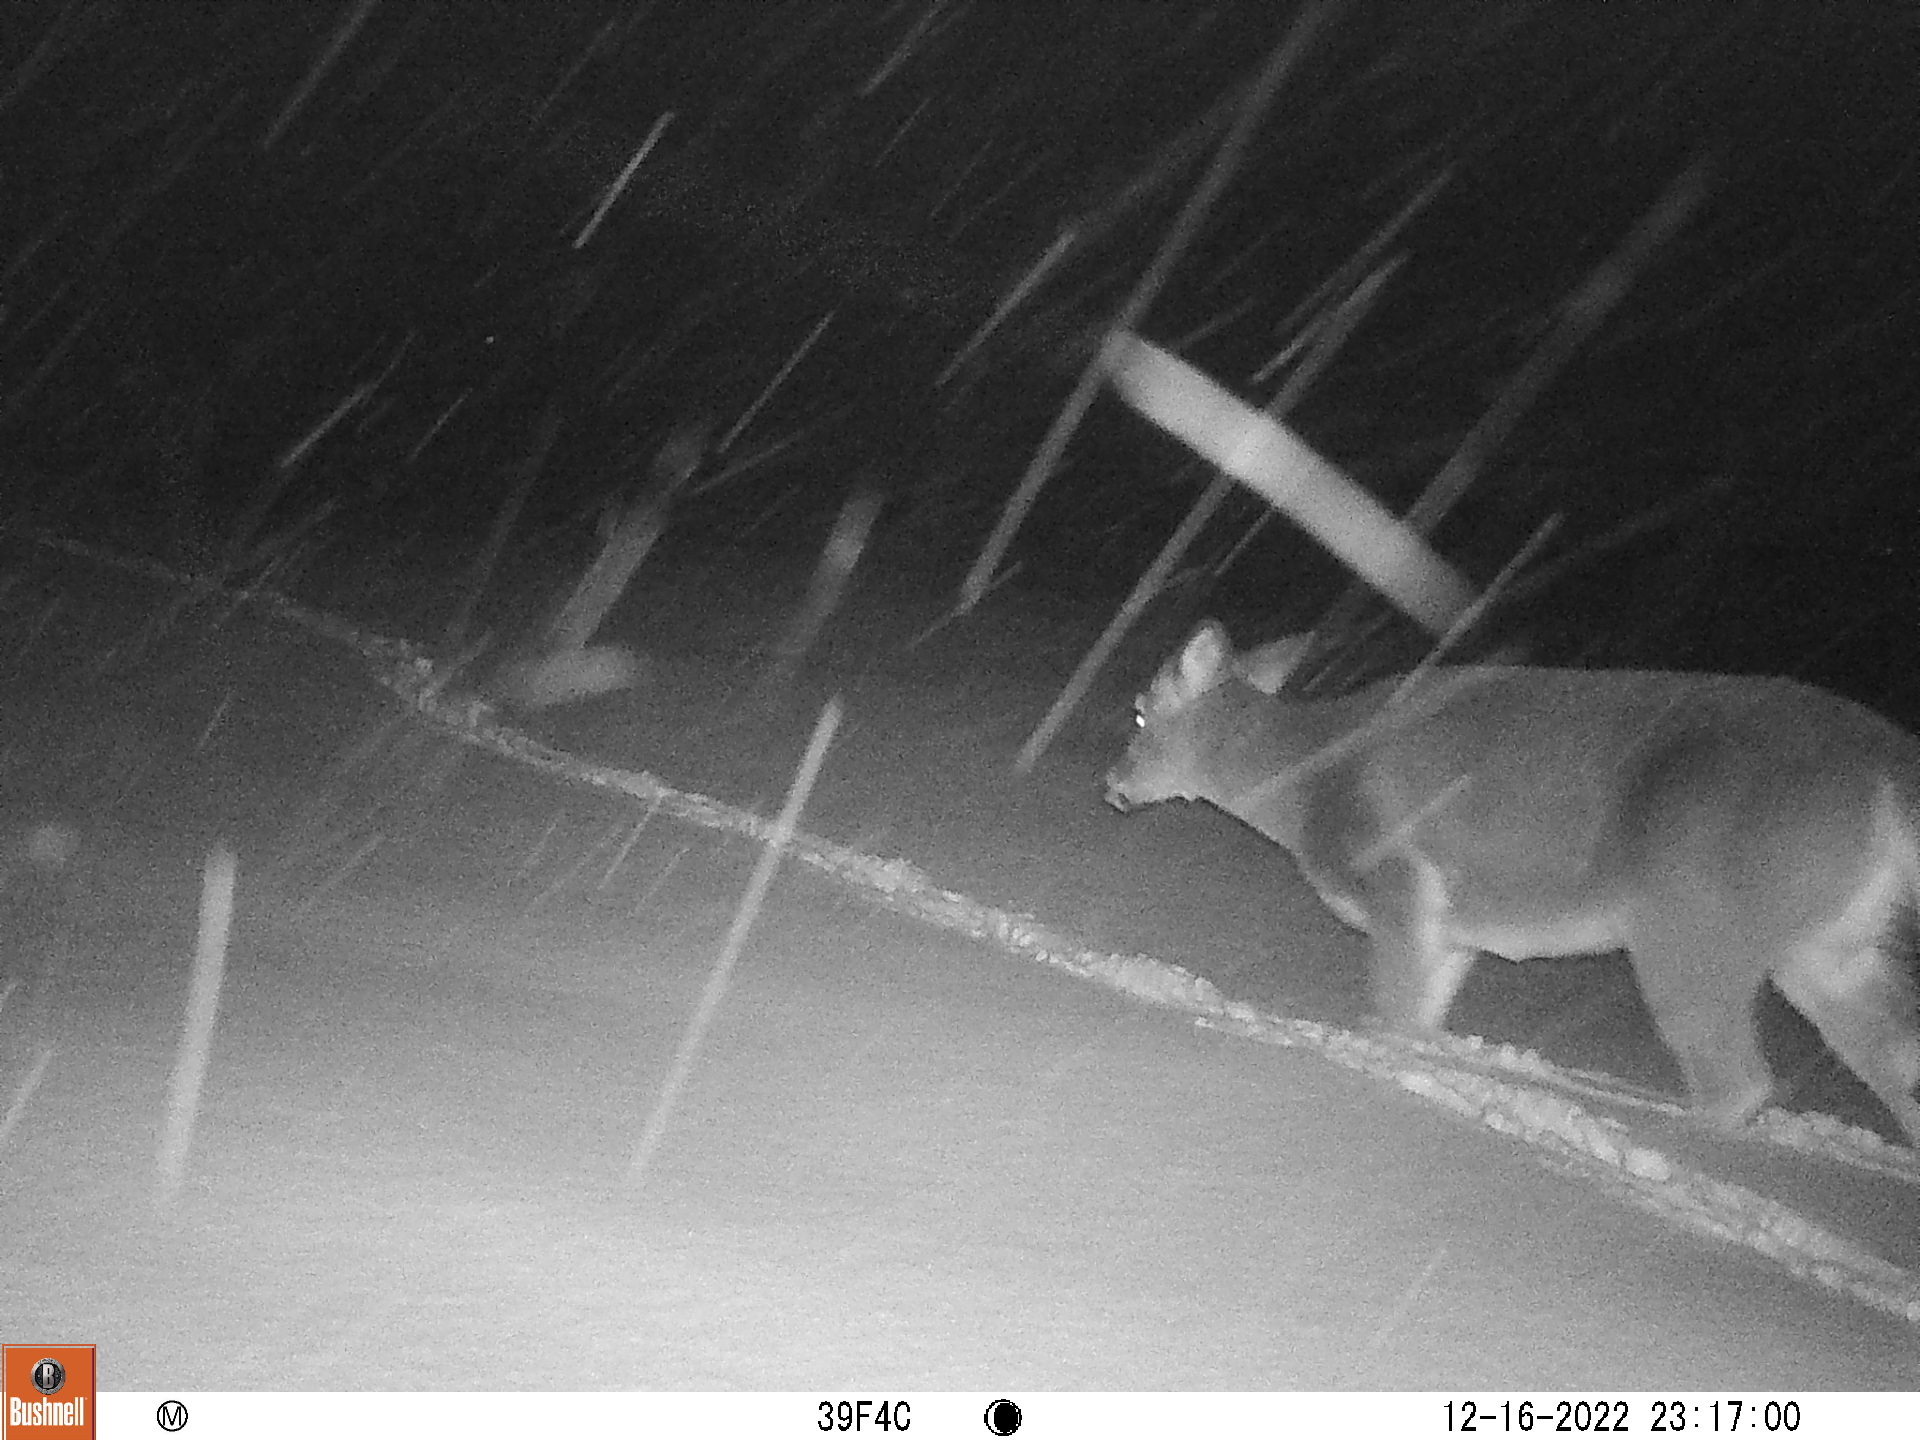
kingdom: Animalia
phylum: Chordata
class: Mammalia
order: Artiodactyla
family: Cervidae
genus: Odocoileus
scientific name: Odocoileus virginianus
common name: White-tailed deer
